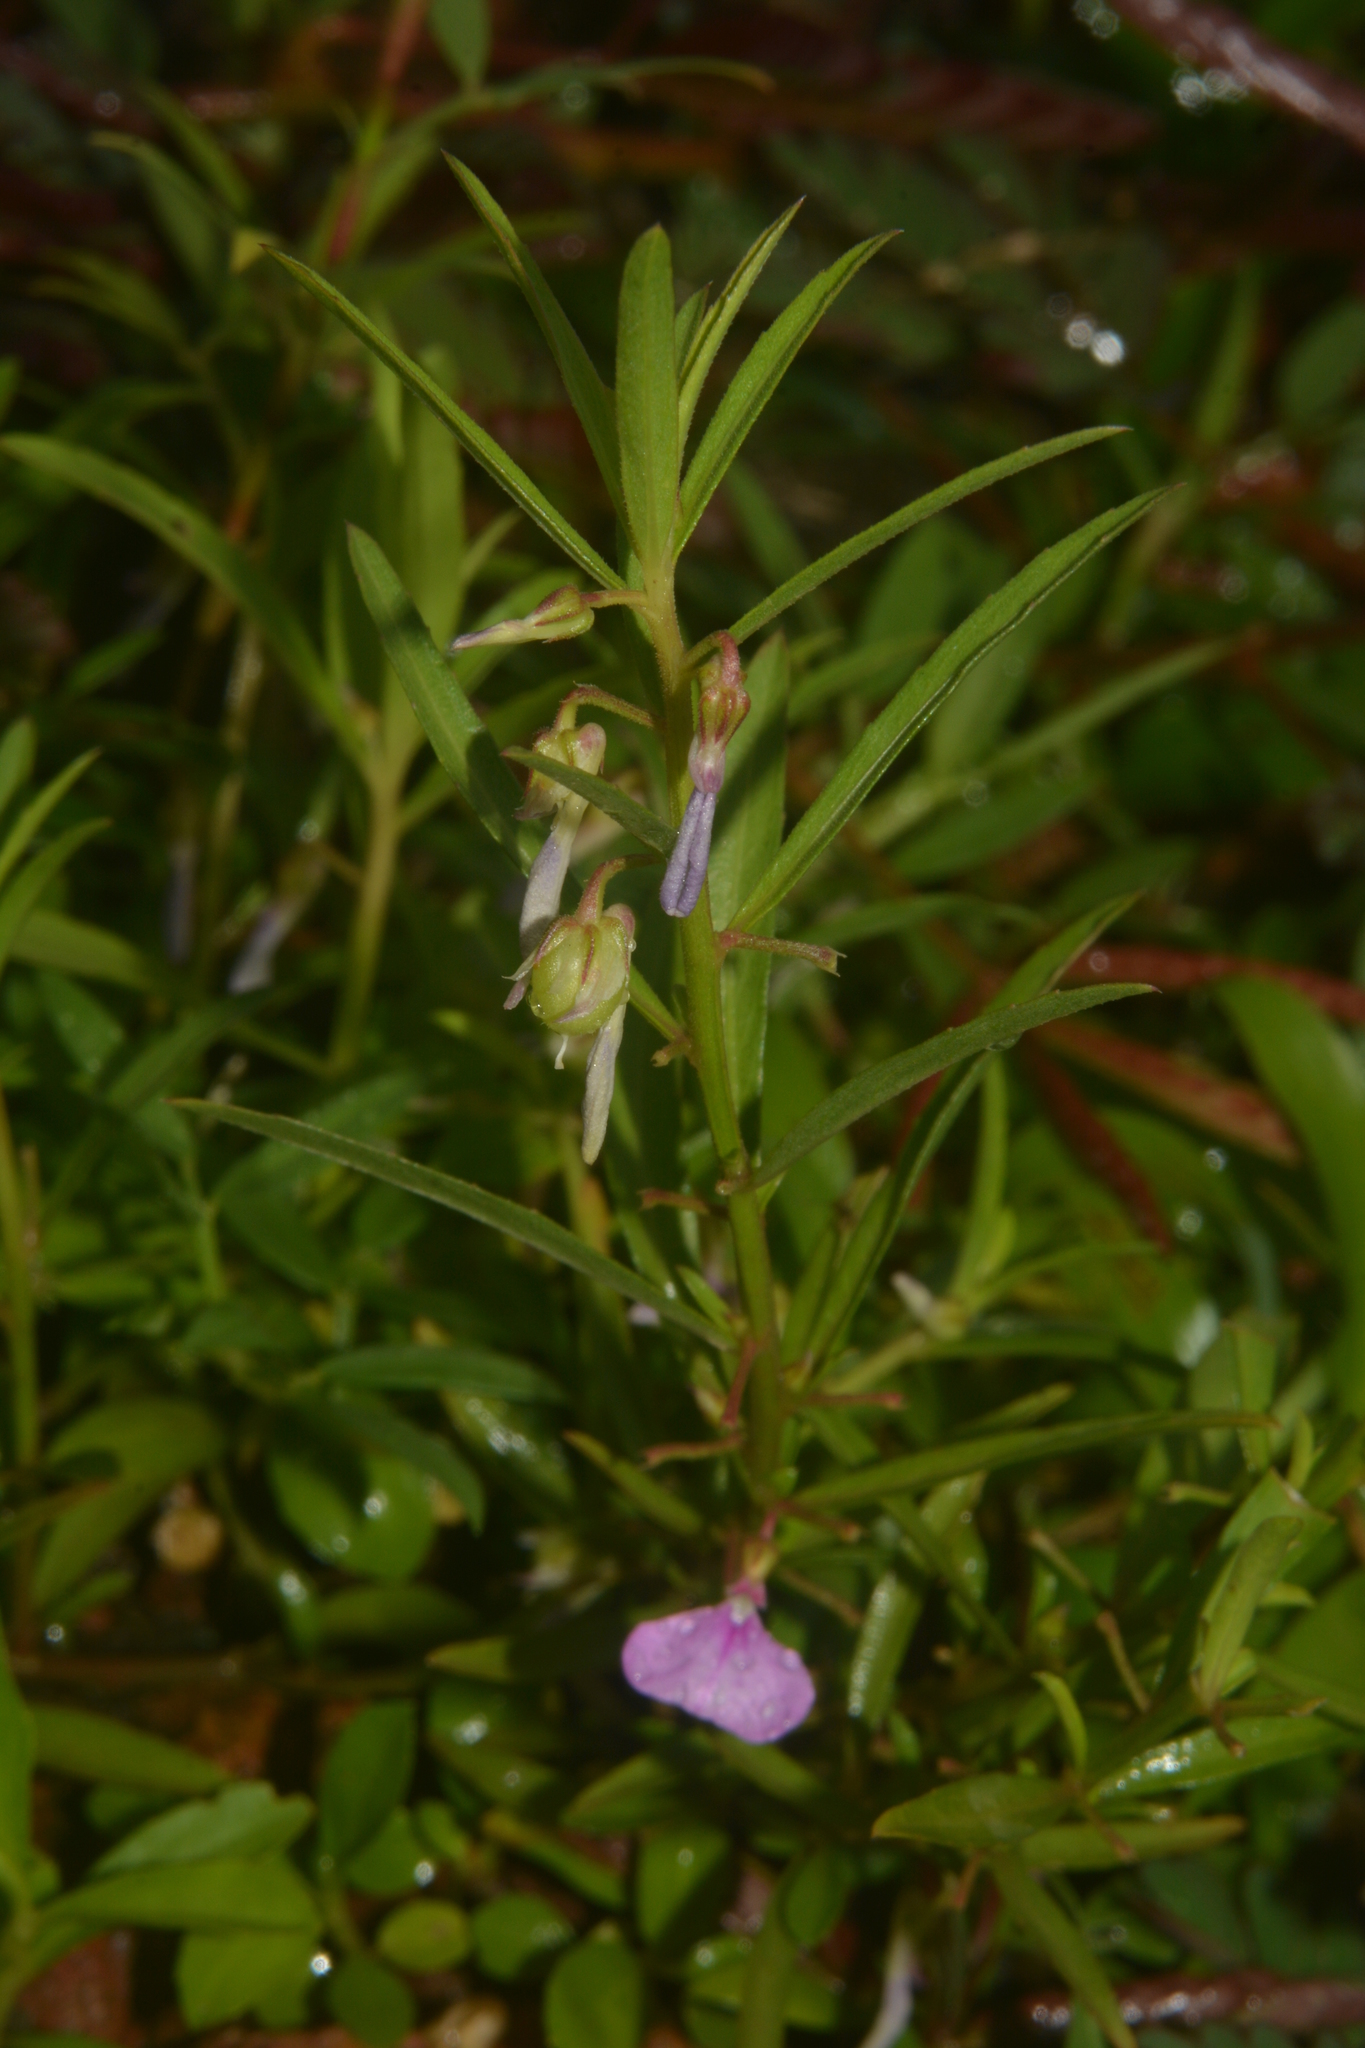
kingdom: Plantae
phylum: Tracheophyta
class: Magnoliopsida
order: Malpighiales
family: Violaceae
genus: Pigea
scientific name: Pigea enneasperma
